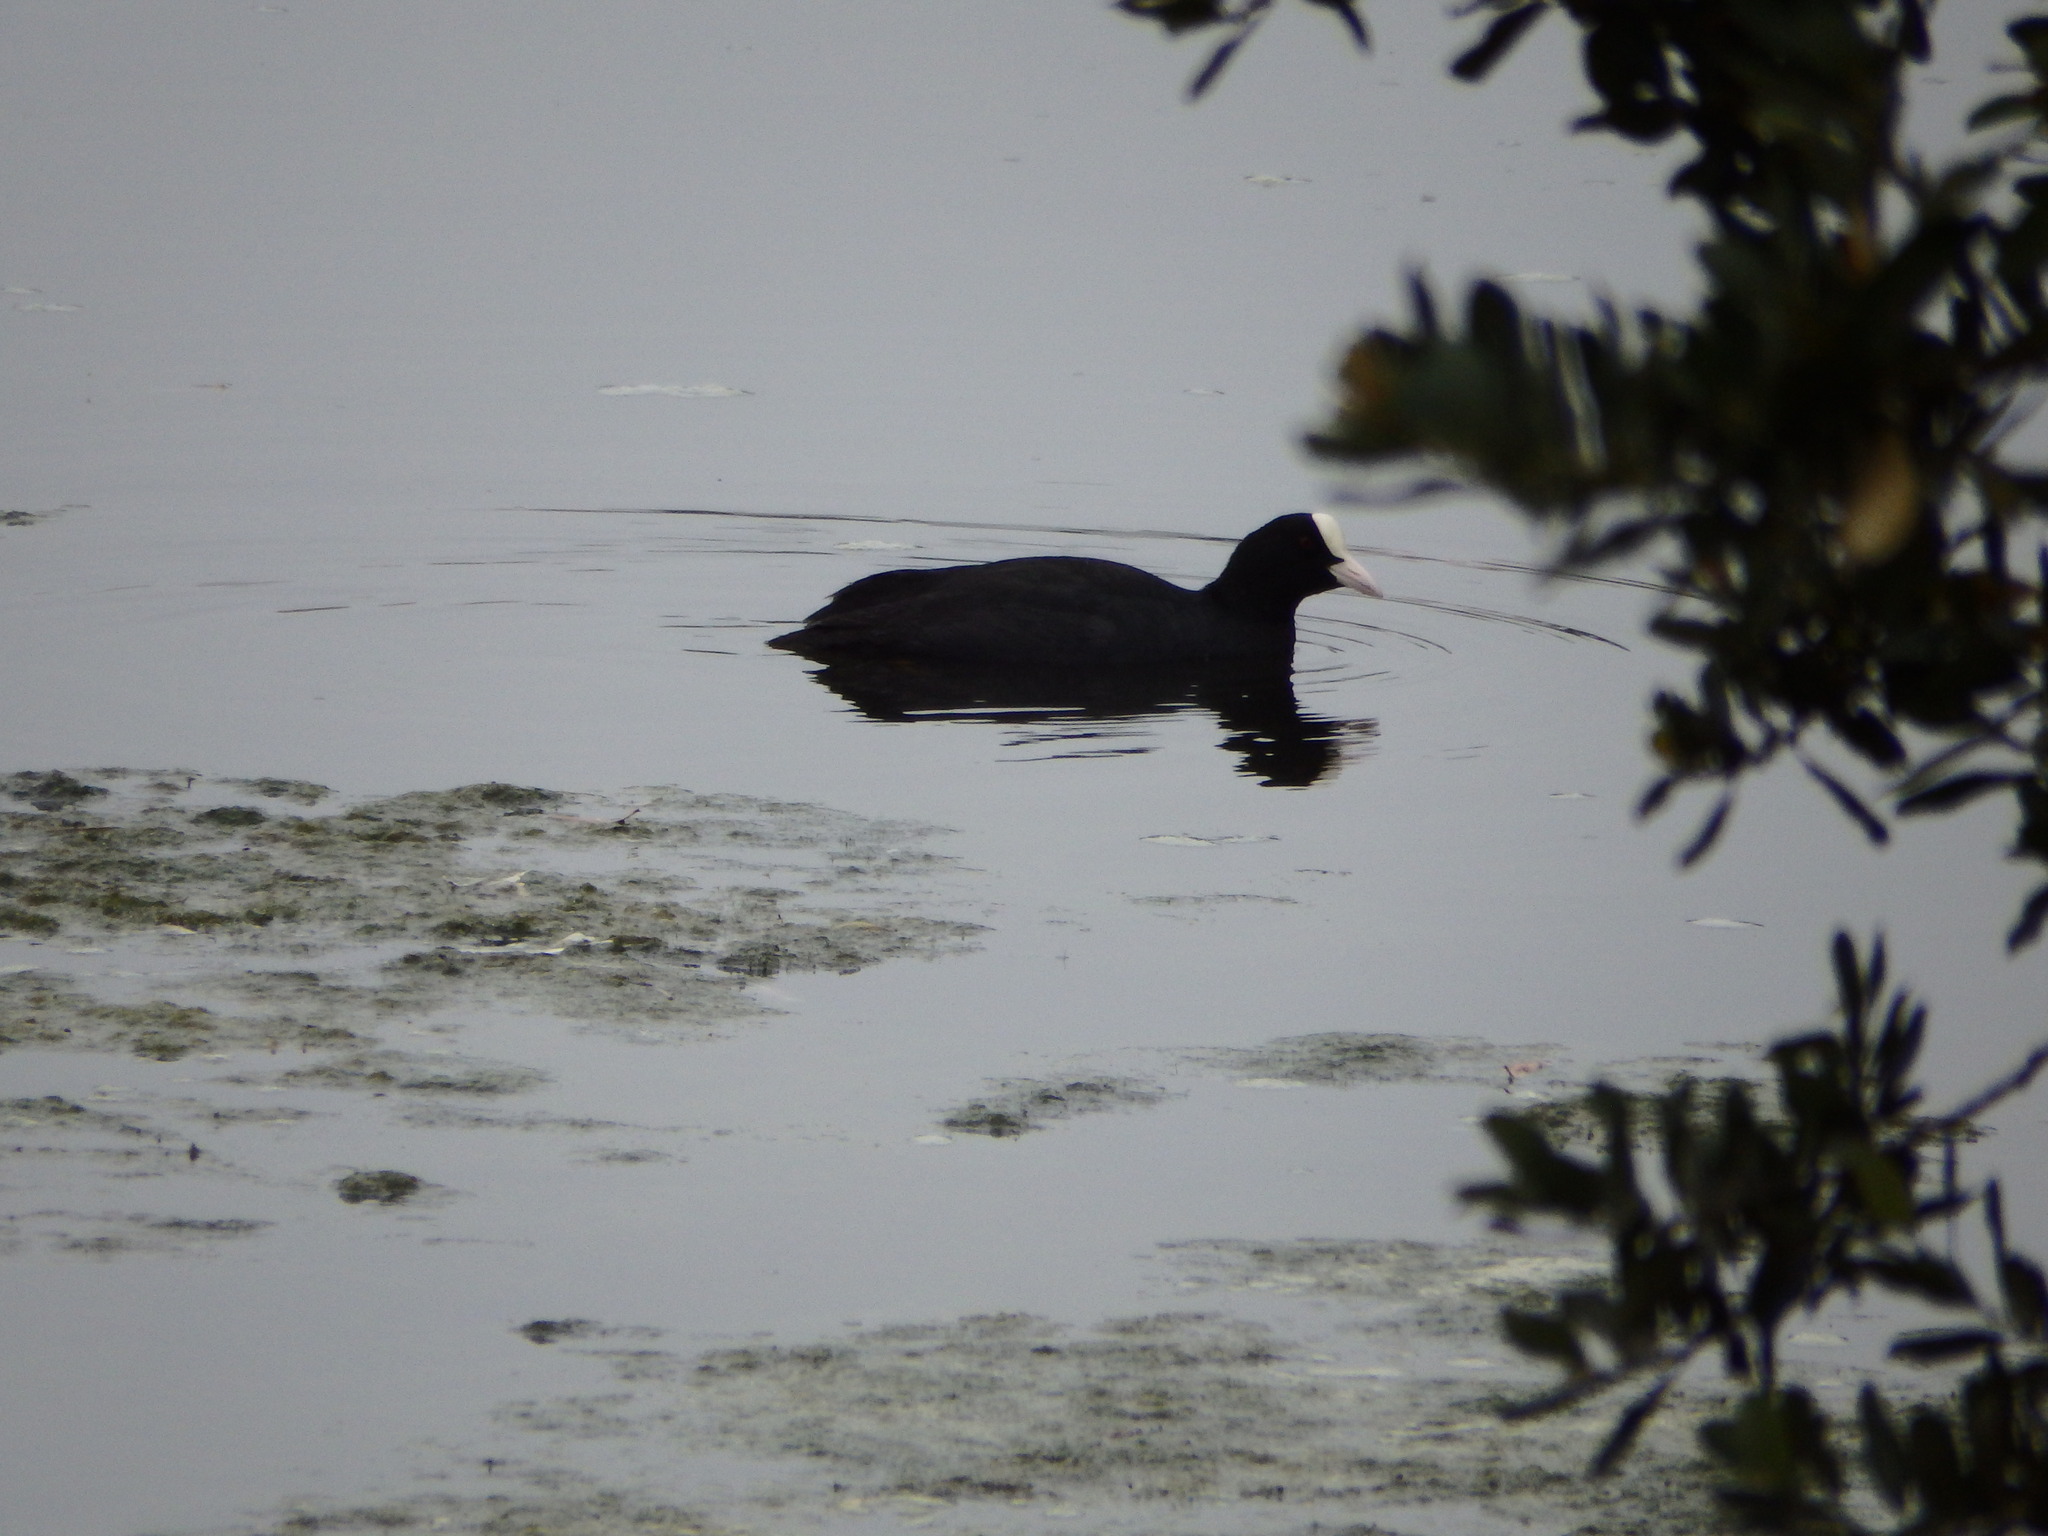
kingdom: Animalia
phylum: Chordata
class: Aves
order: Gruiformes
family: Rallidae
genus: Fulica
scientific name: Fulica atra
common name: Eurasian coot
